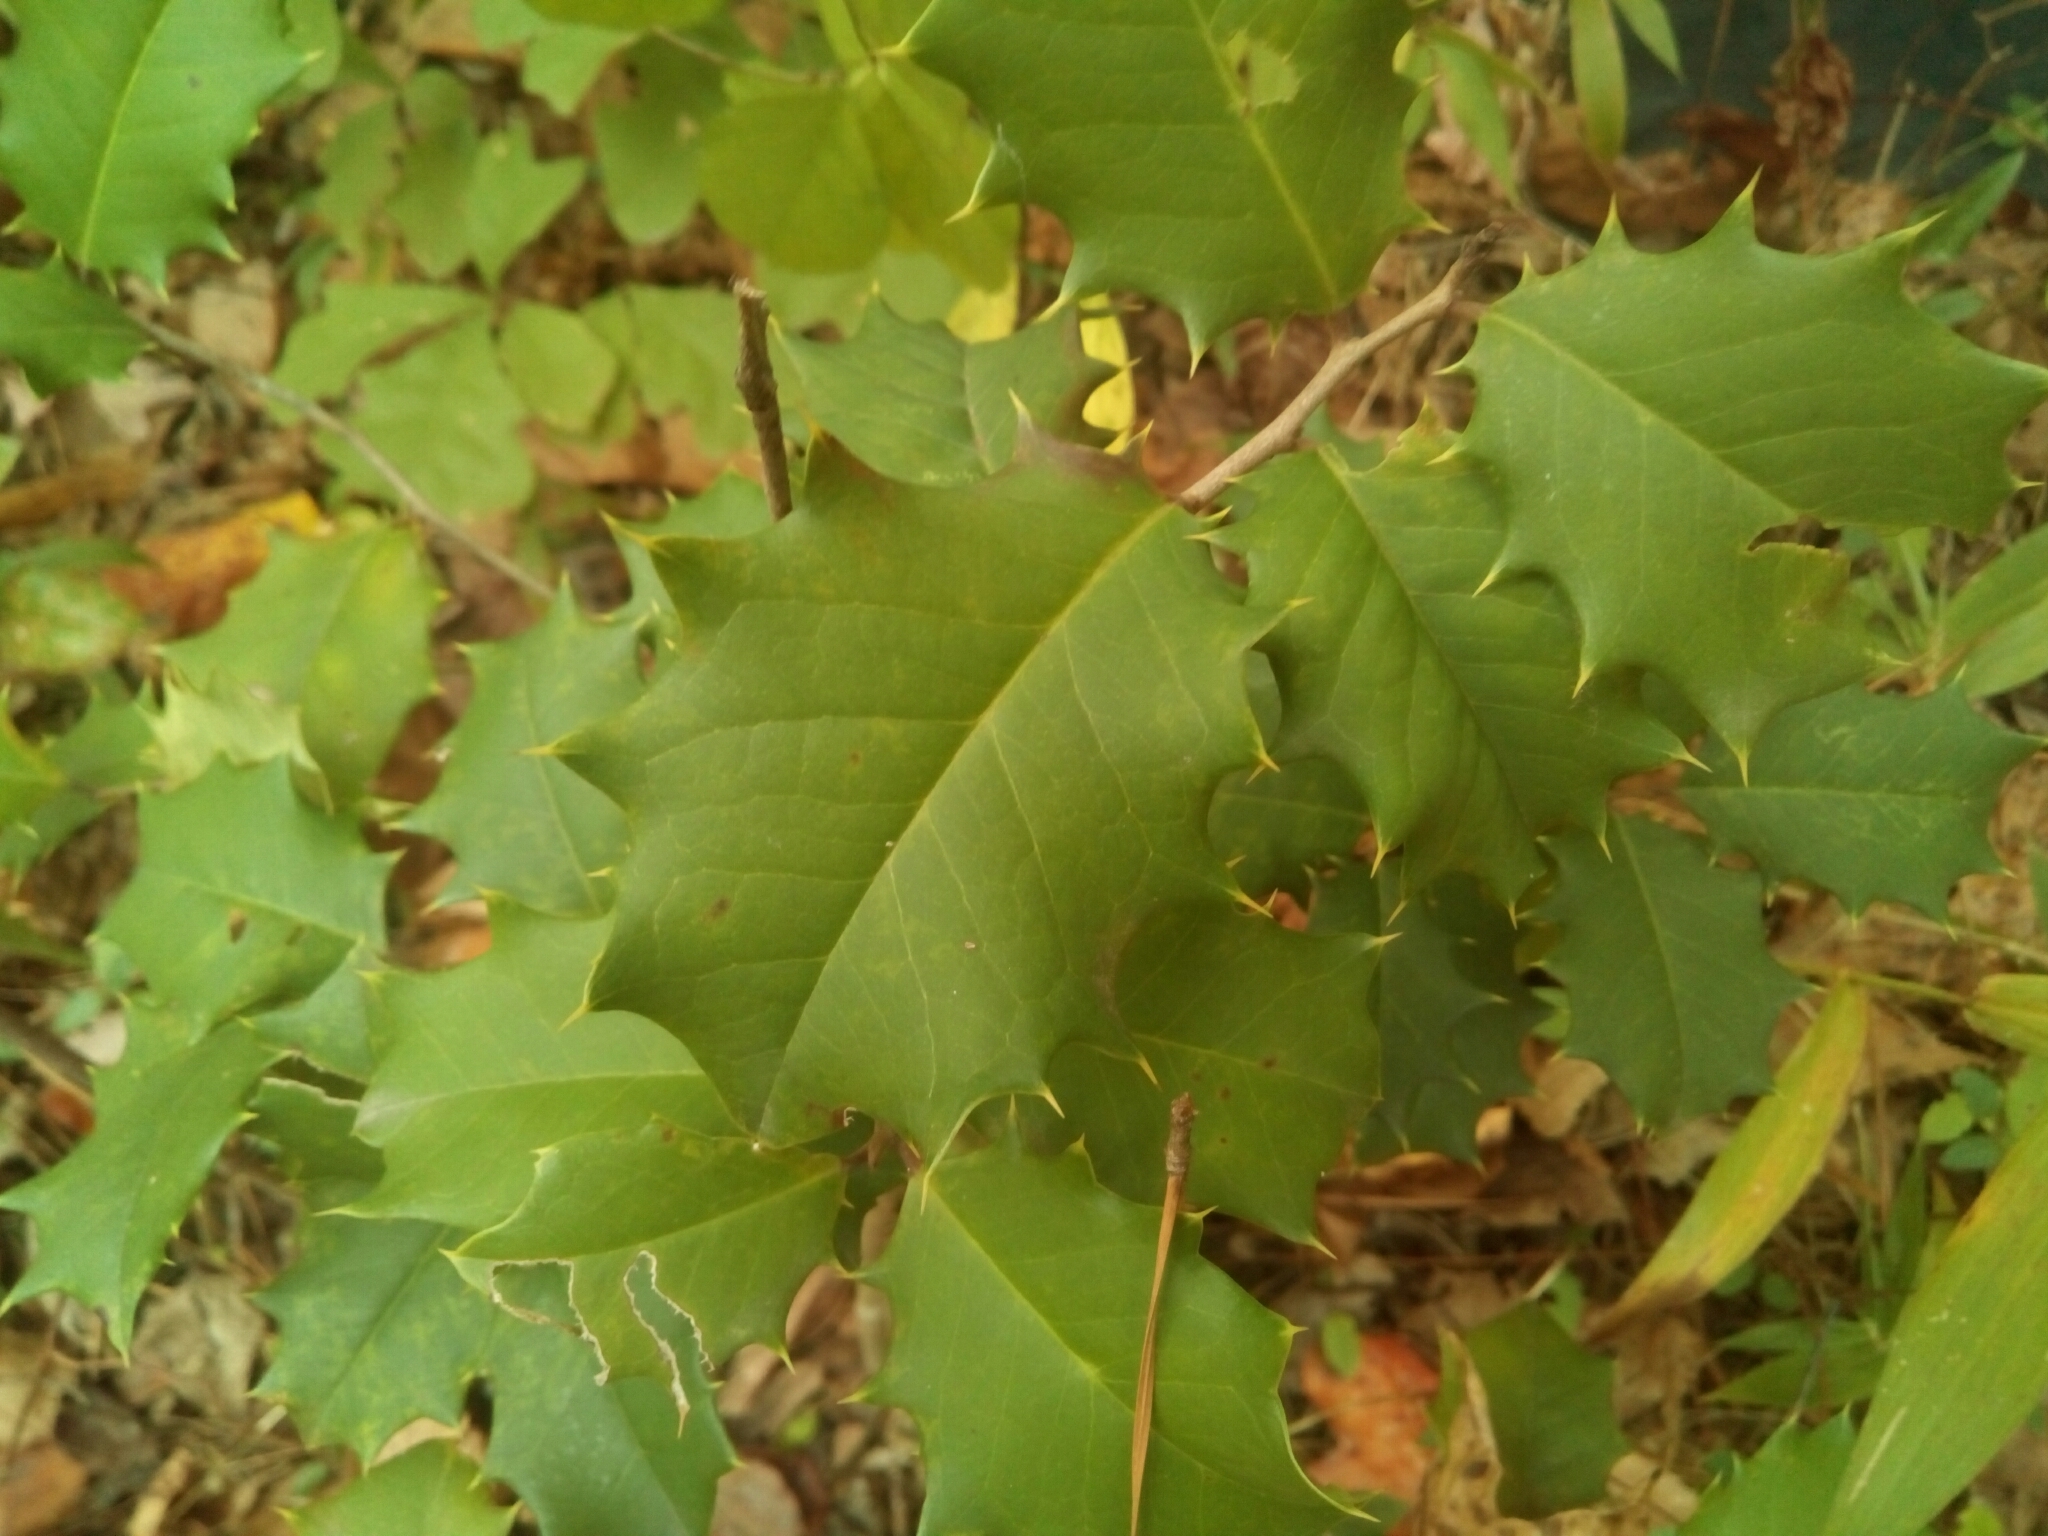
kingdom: Plantae
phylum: Tracheophyta
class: Magnoliopsida
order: Aquifoliales
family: Aquifoliaceae
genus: Ilex
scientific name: Ilex opaca
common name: American holly
